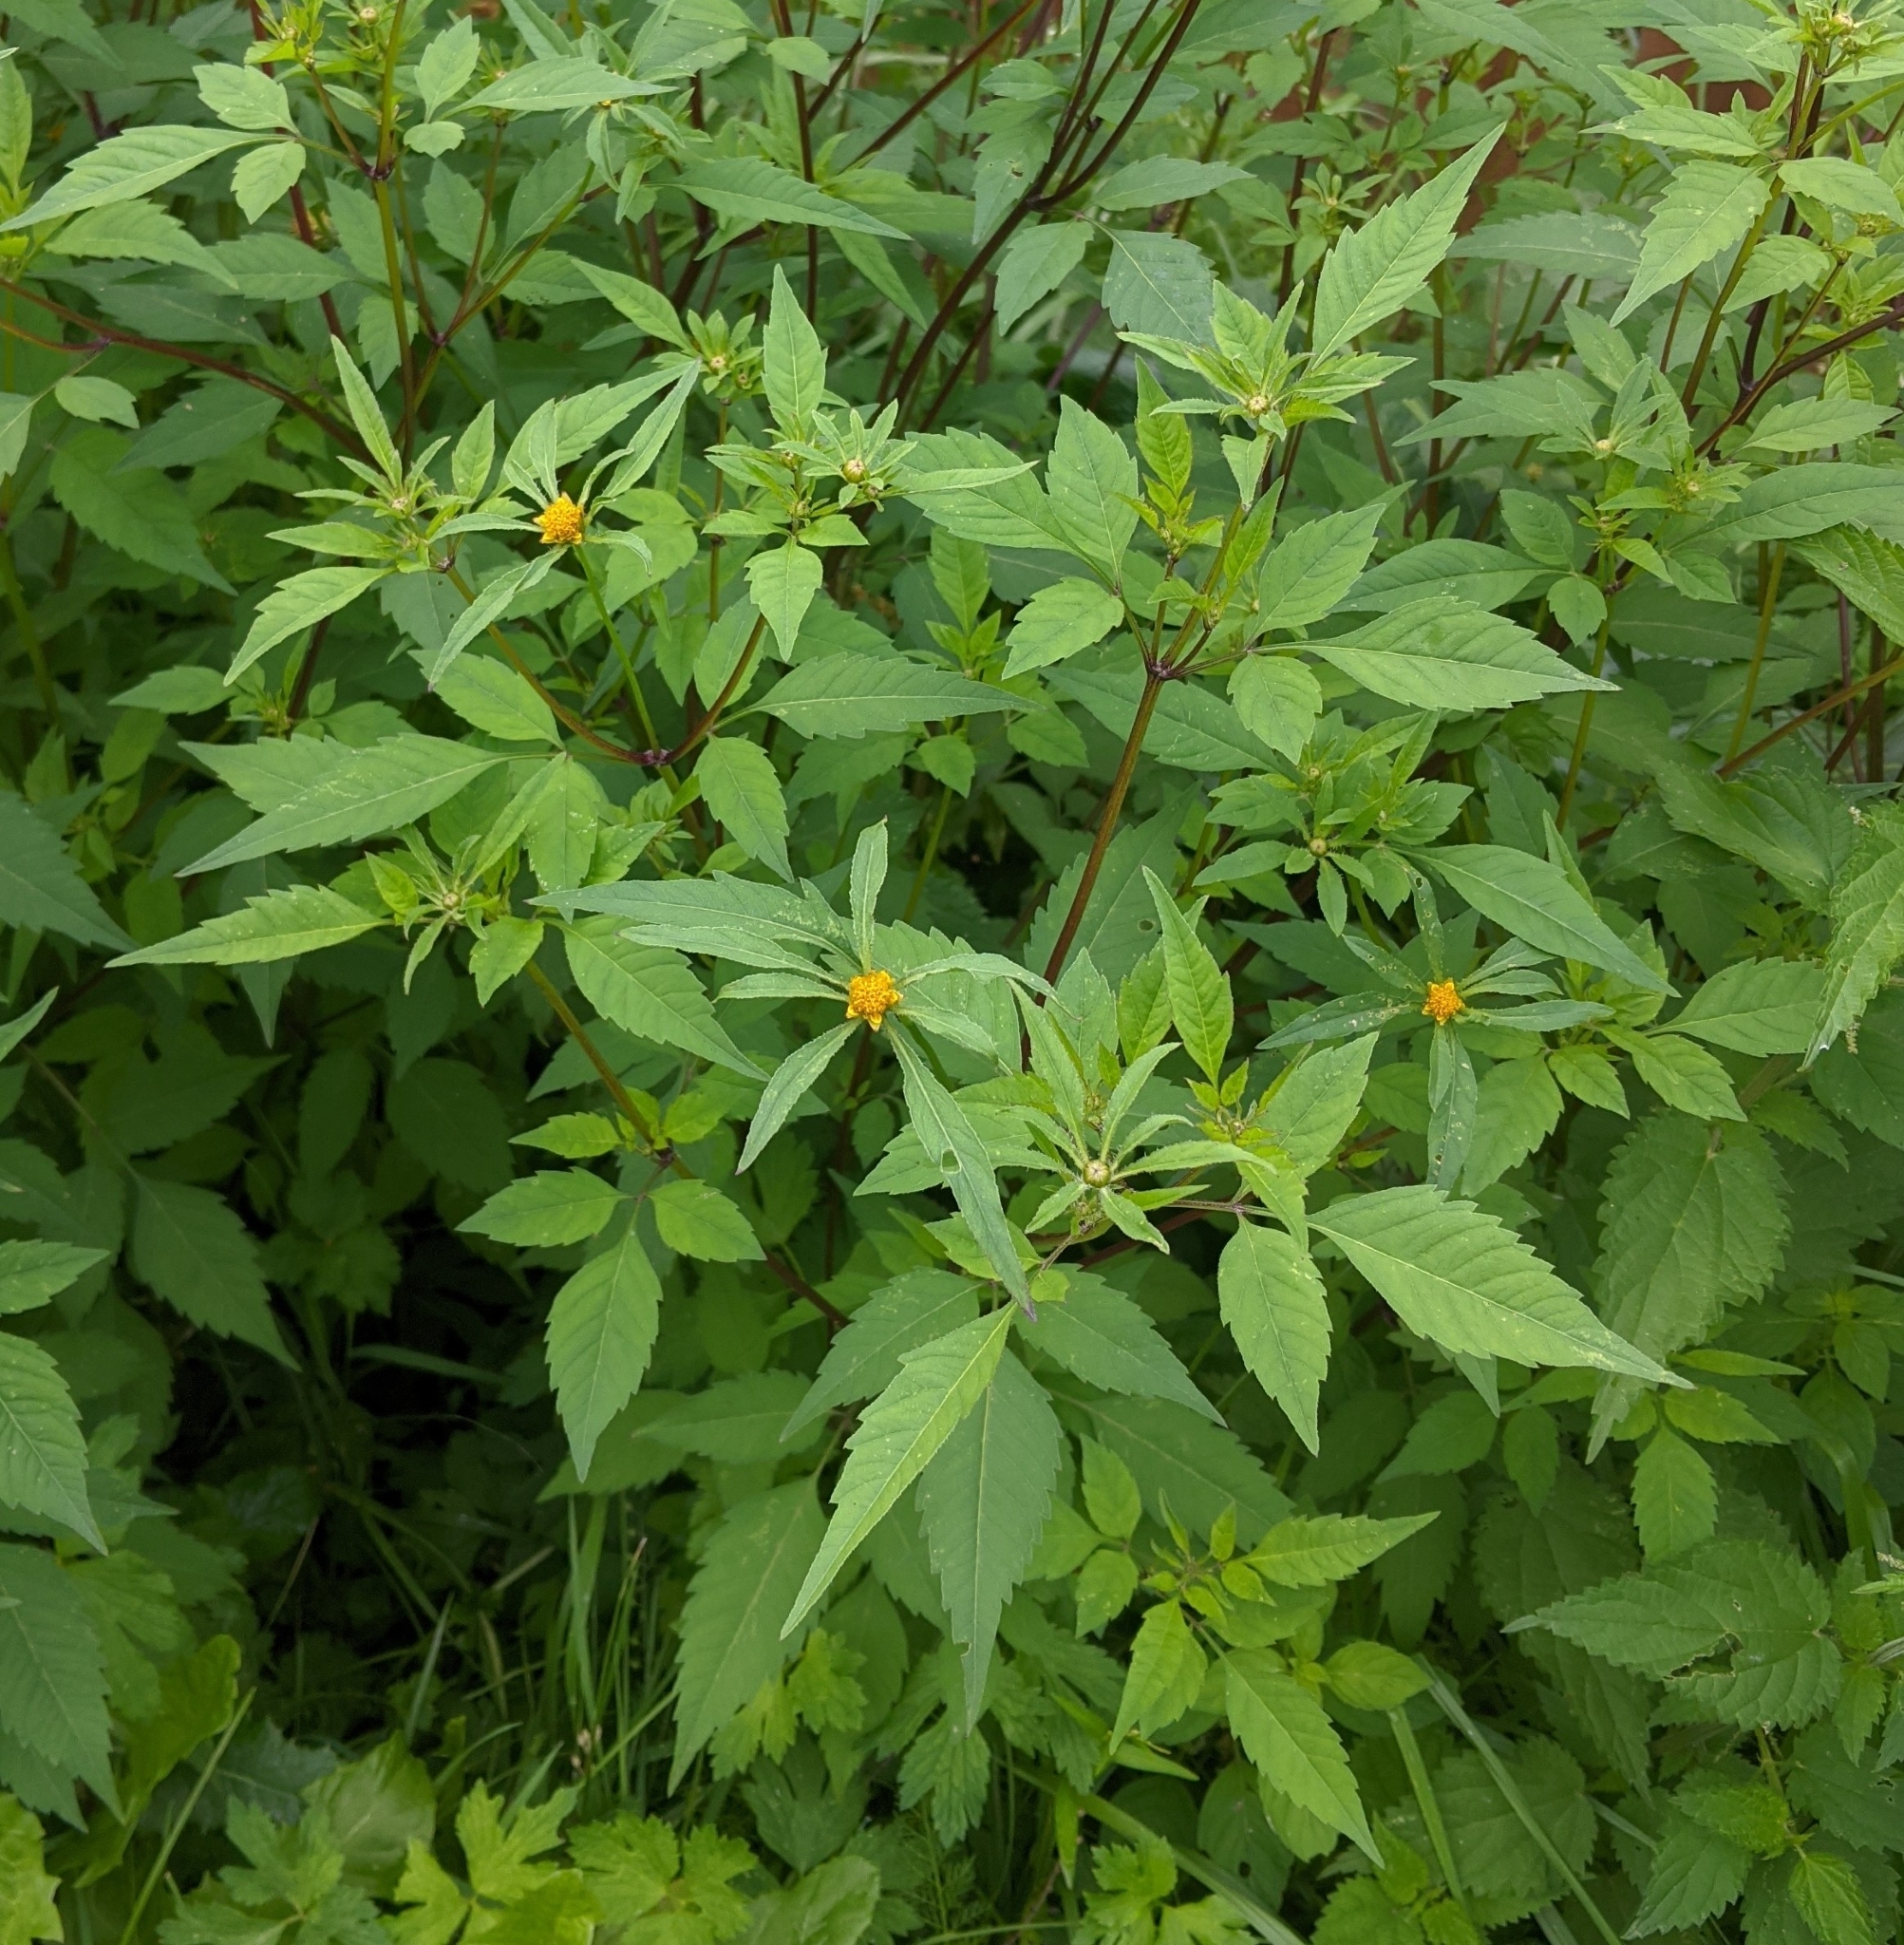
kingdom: Plantae
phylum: Tracheophyta
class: Magnoliopsida
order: Asterales
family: Asteraceae
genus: Bidens
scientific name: Bidens frondosa
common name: Beggarticks
